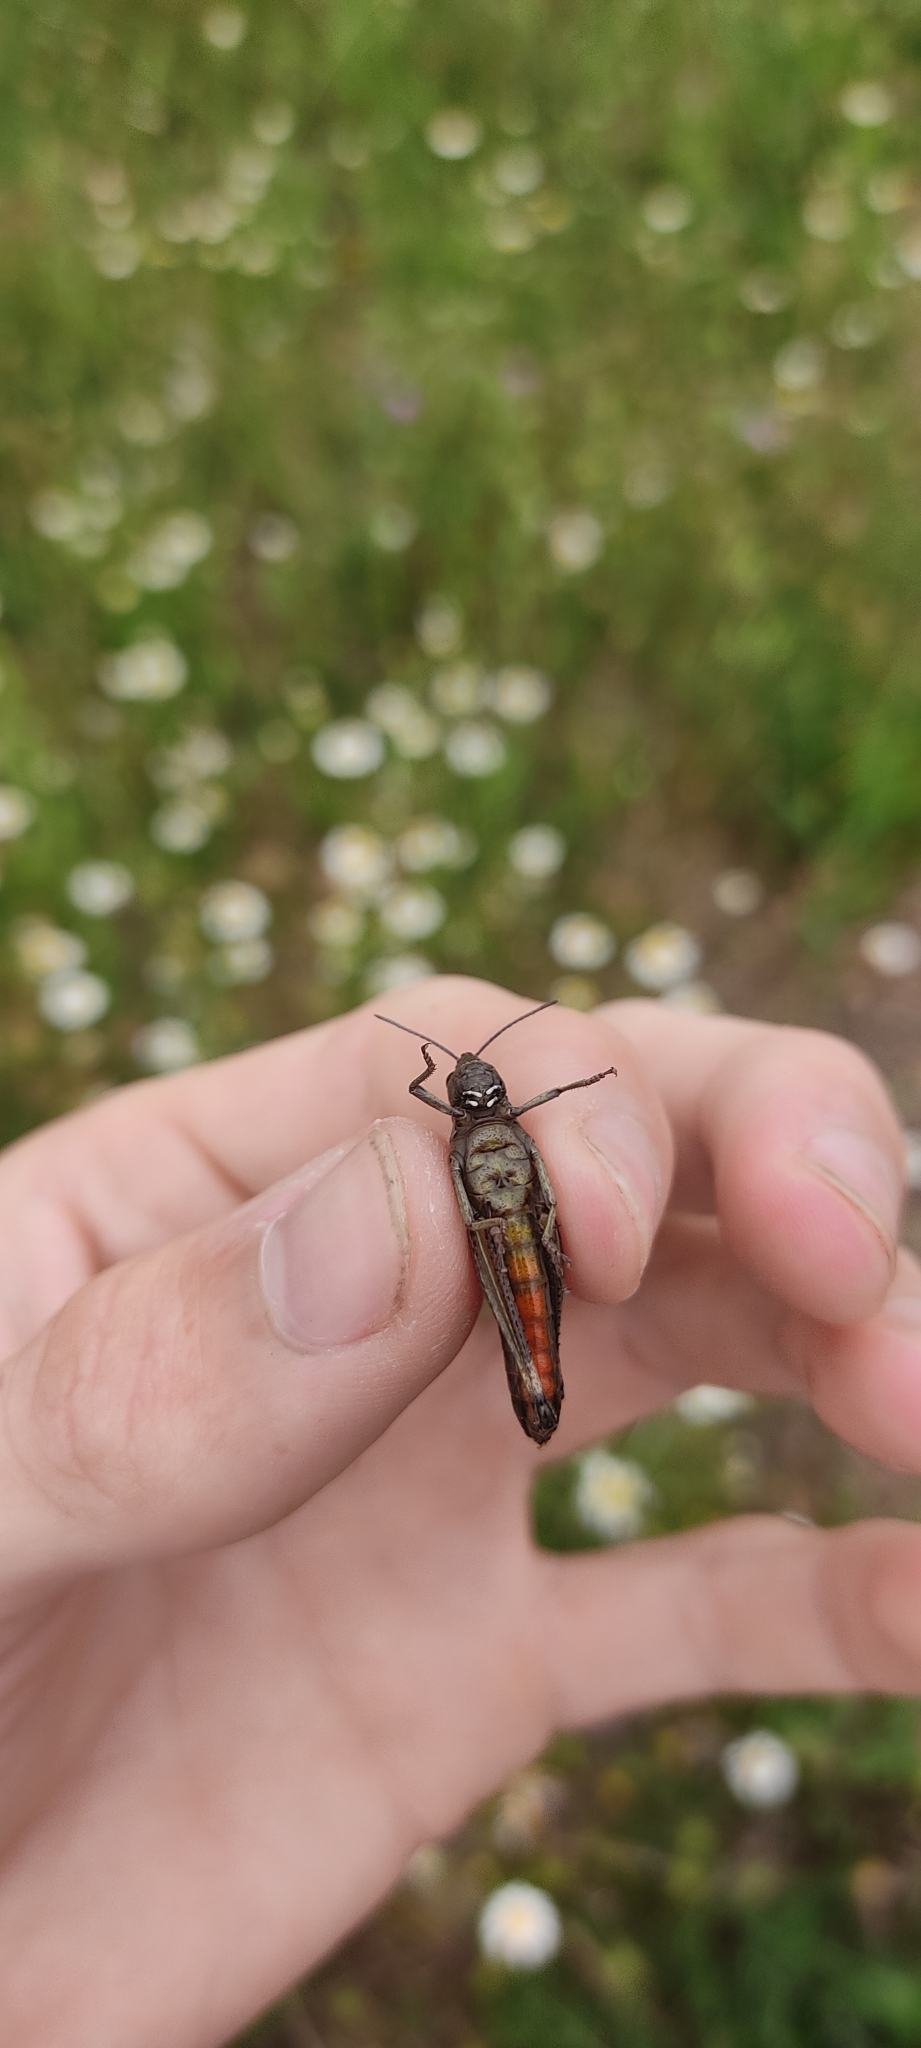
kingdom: Animalia
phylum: Arthropoda
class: Insecta
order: Orthoptera
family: Acrididae
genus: Omocestus
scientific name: Omocestus rufipes
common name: Woodland grasshopper
